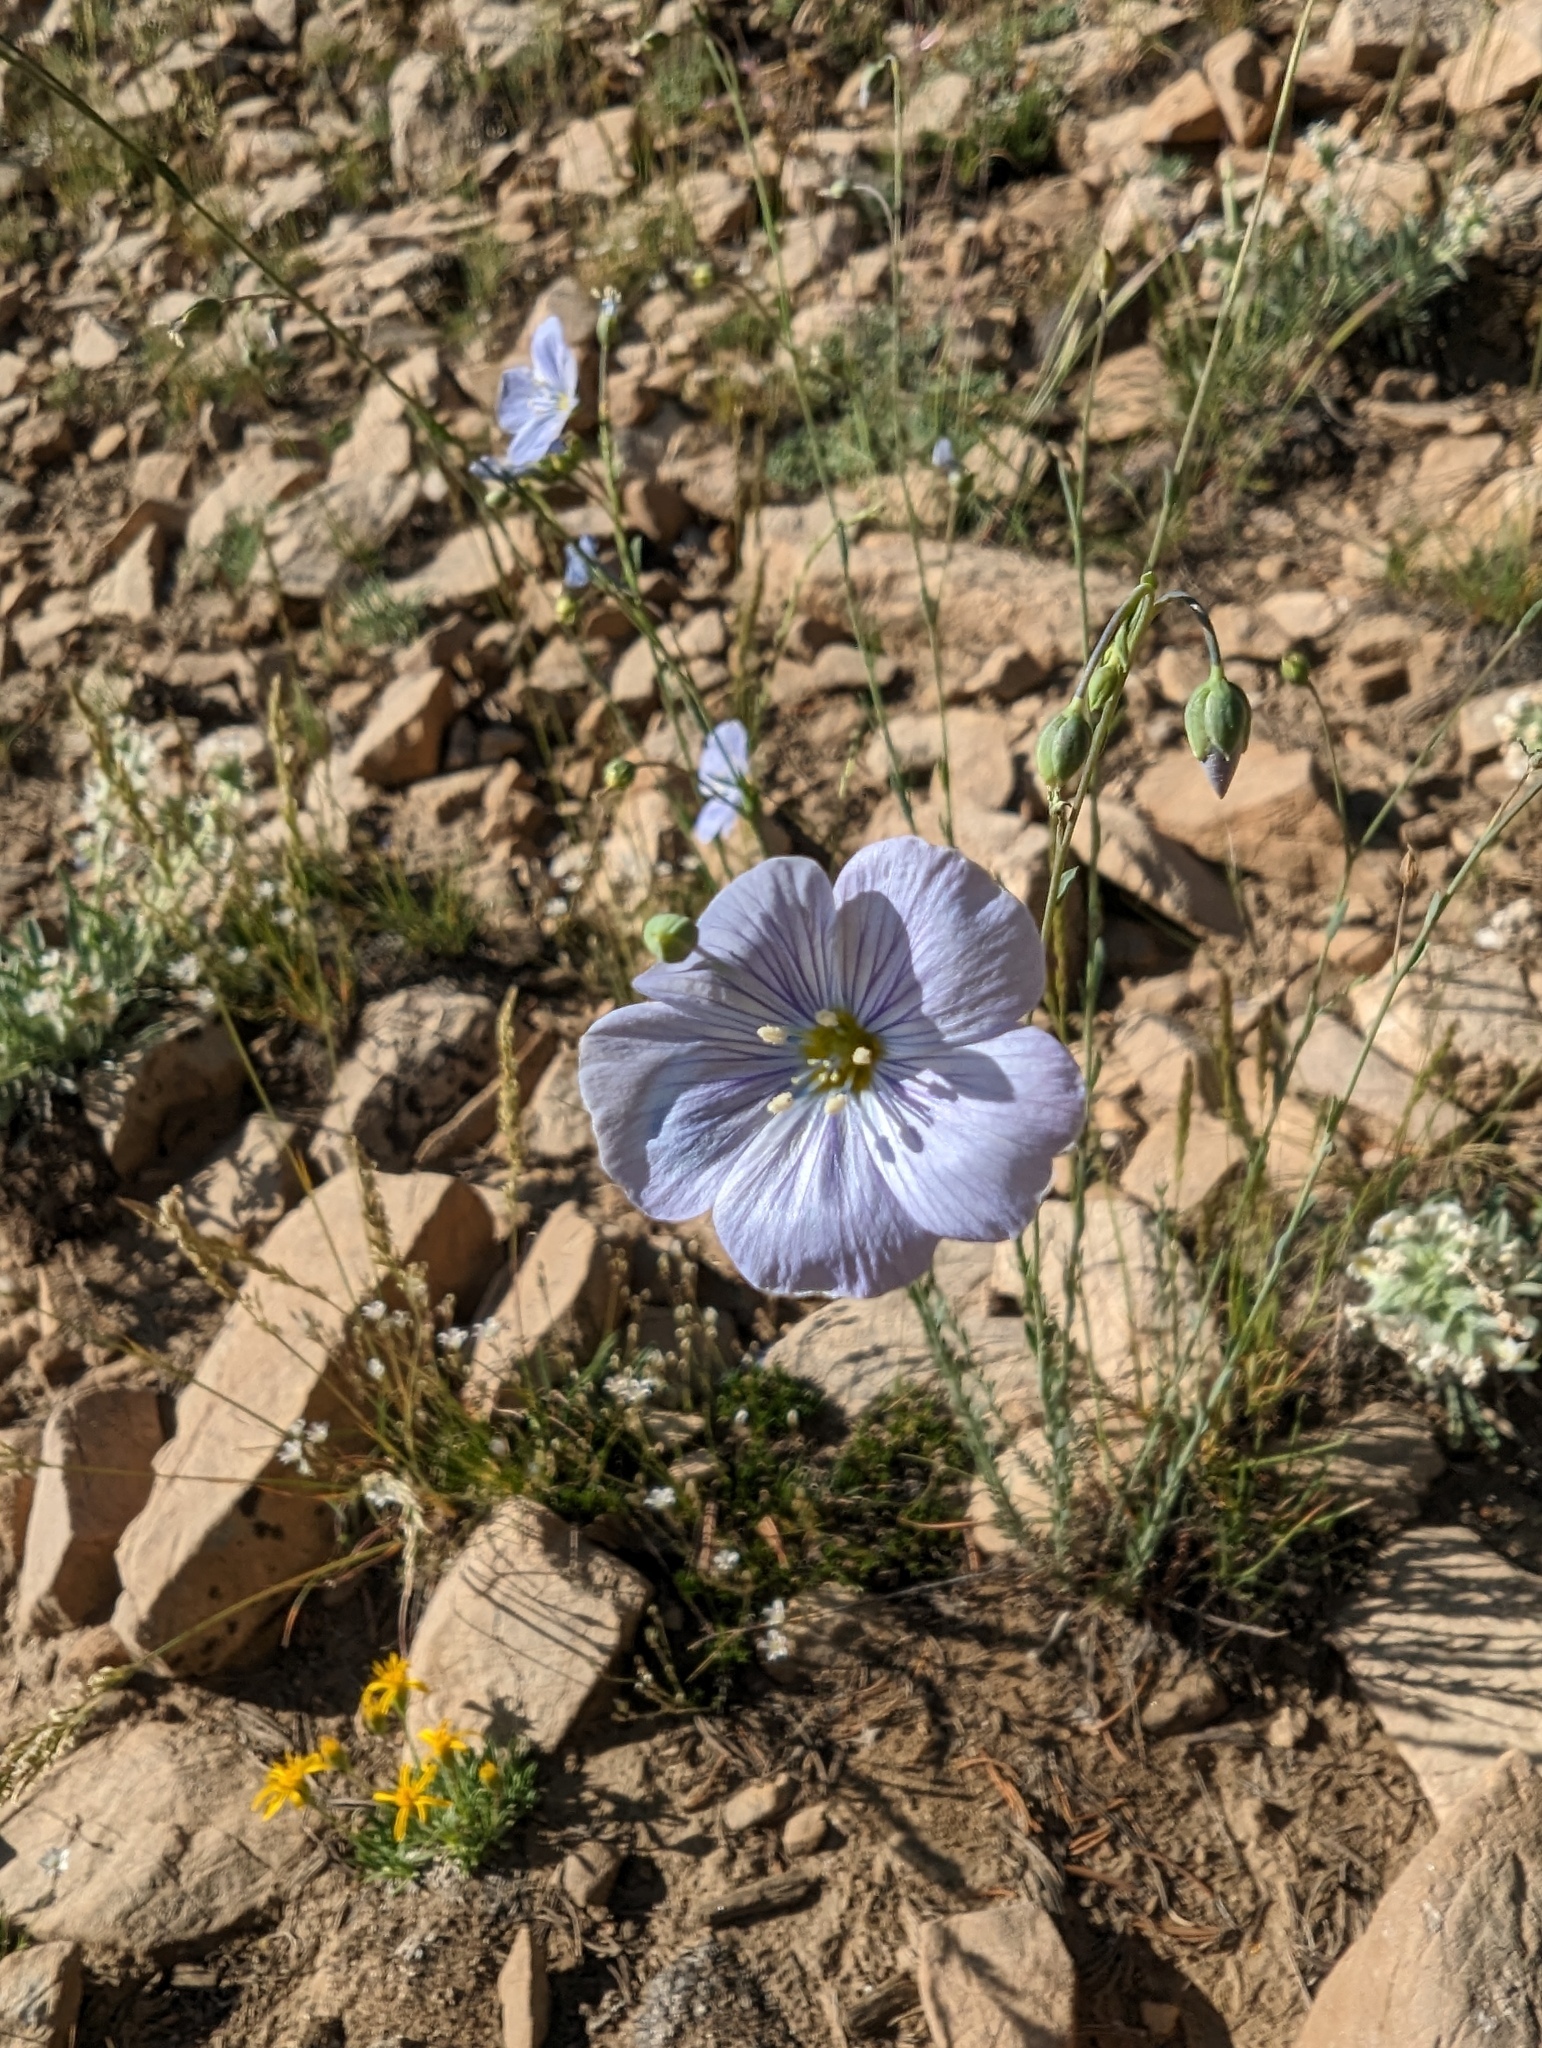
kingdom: Plantae
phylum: Tracheophyta
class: Magnoliopsida
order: Malpighiales
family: Linaceae
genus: Linum
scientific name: Linum lewisii
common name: Prairie flax
